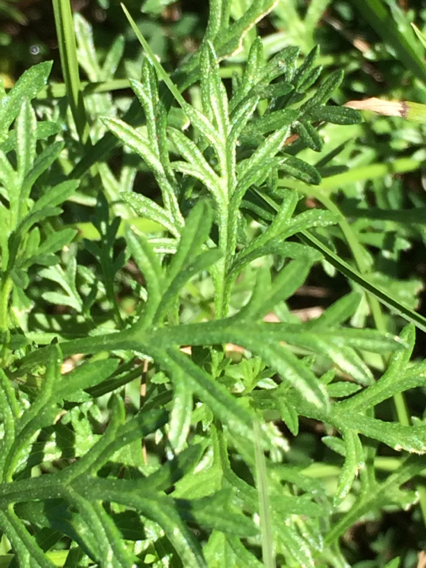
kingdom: Plantae
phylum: Tracheophyta
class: Magnoliopsida
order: Lamiales
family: Verbenaceae
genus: Verbena
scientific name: Verbena bipinnatifida
